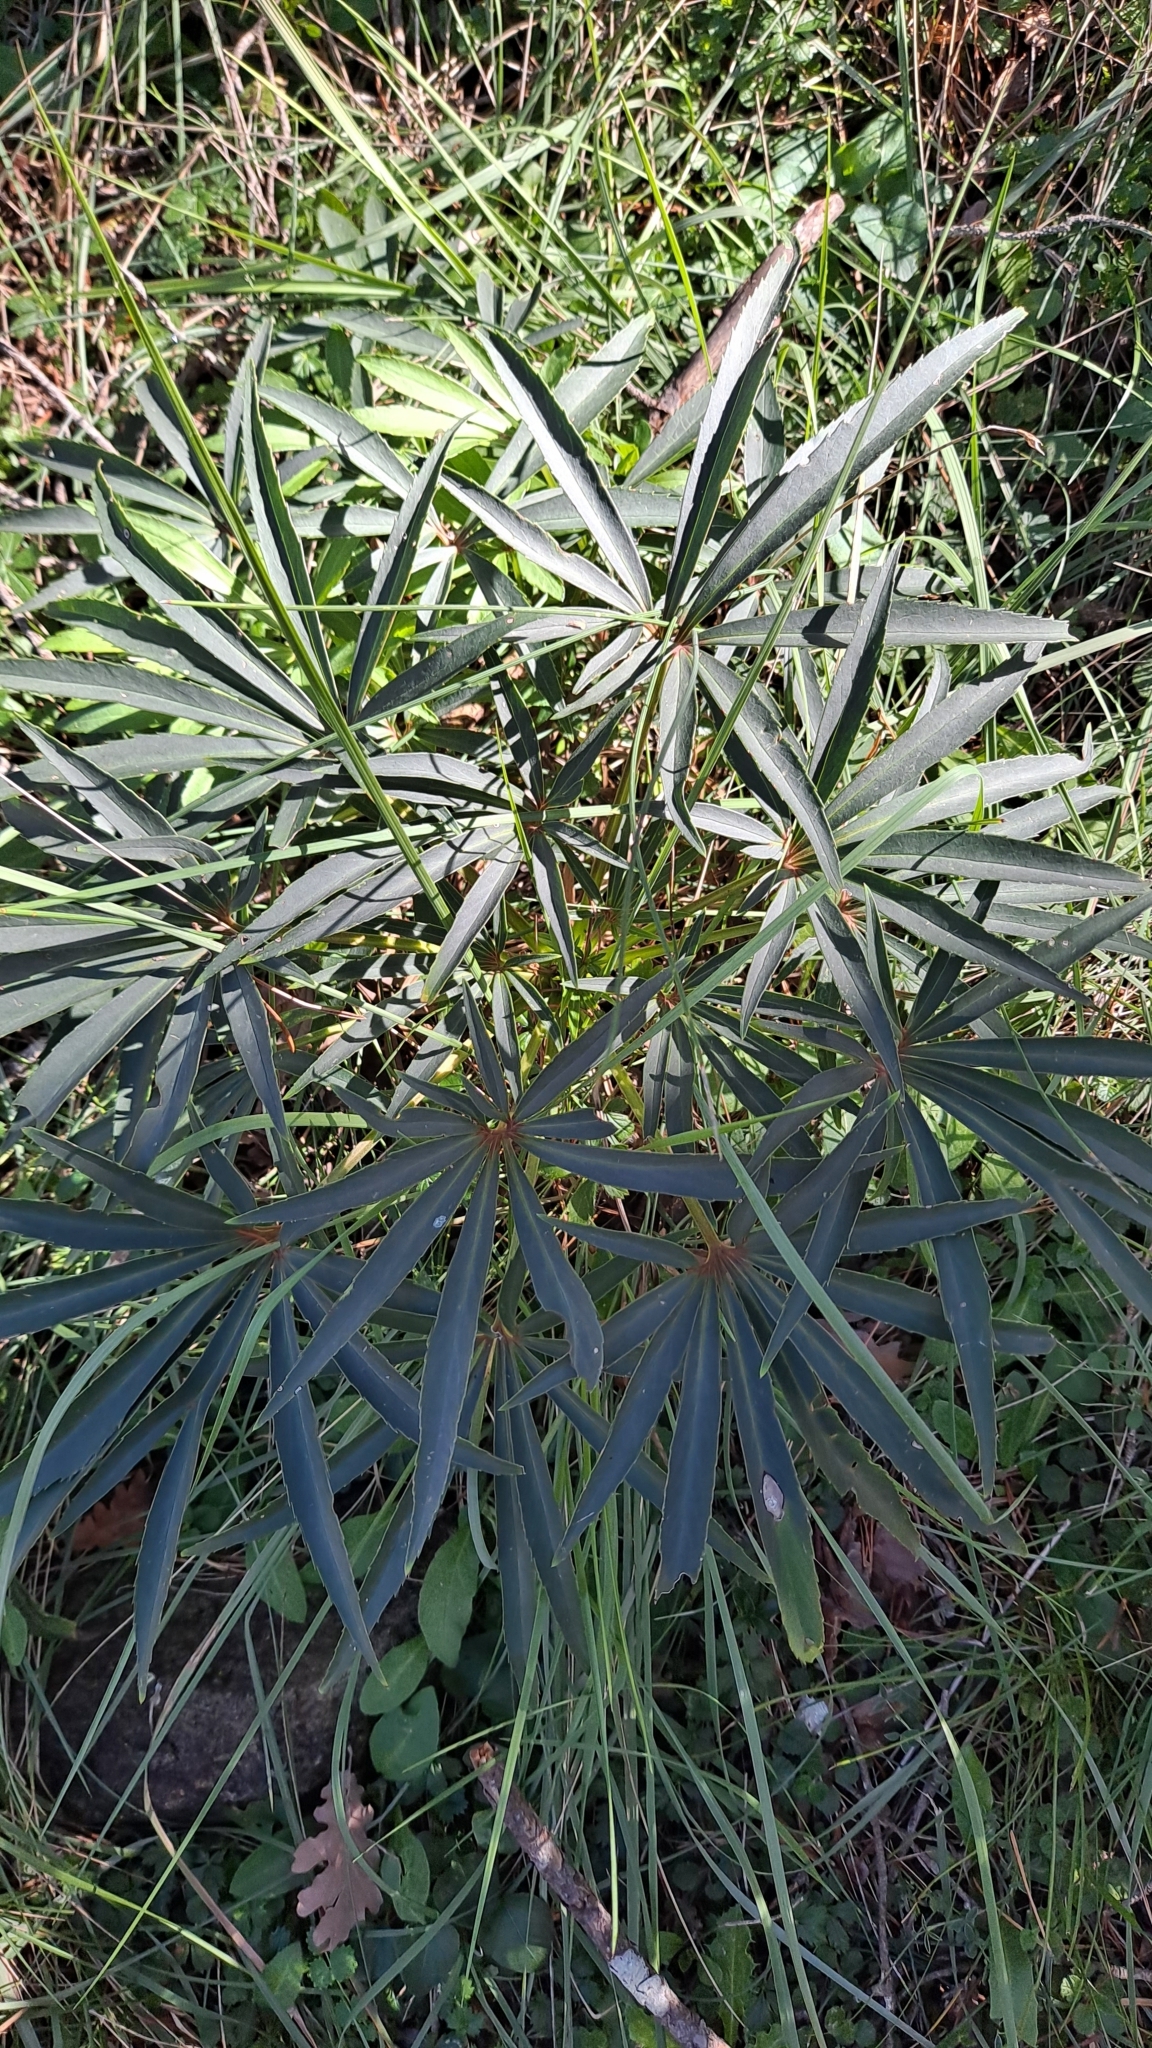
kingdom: Plantae
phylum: Tracheophyta
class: Magnoliopsida
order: Ranunculales
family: Ranunculaceae
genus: Helleborus
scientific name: Helleborus foetidus
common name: Stinking hellebore
